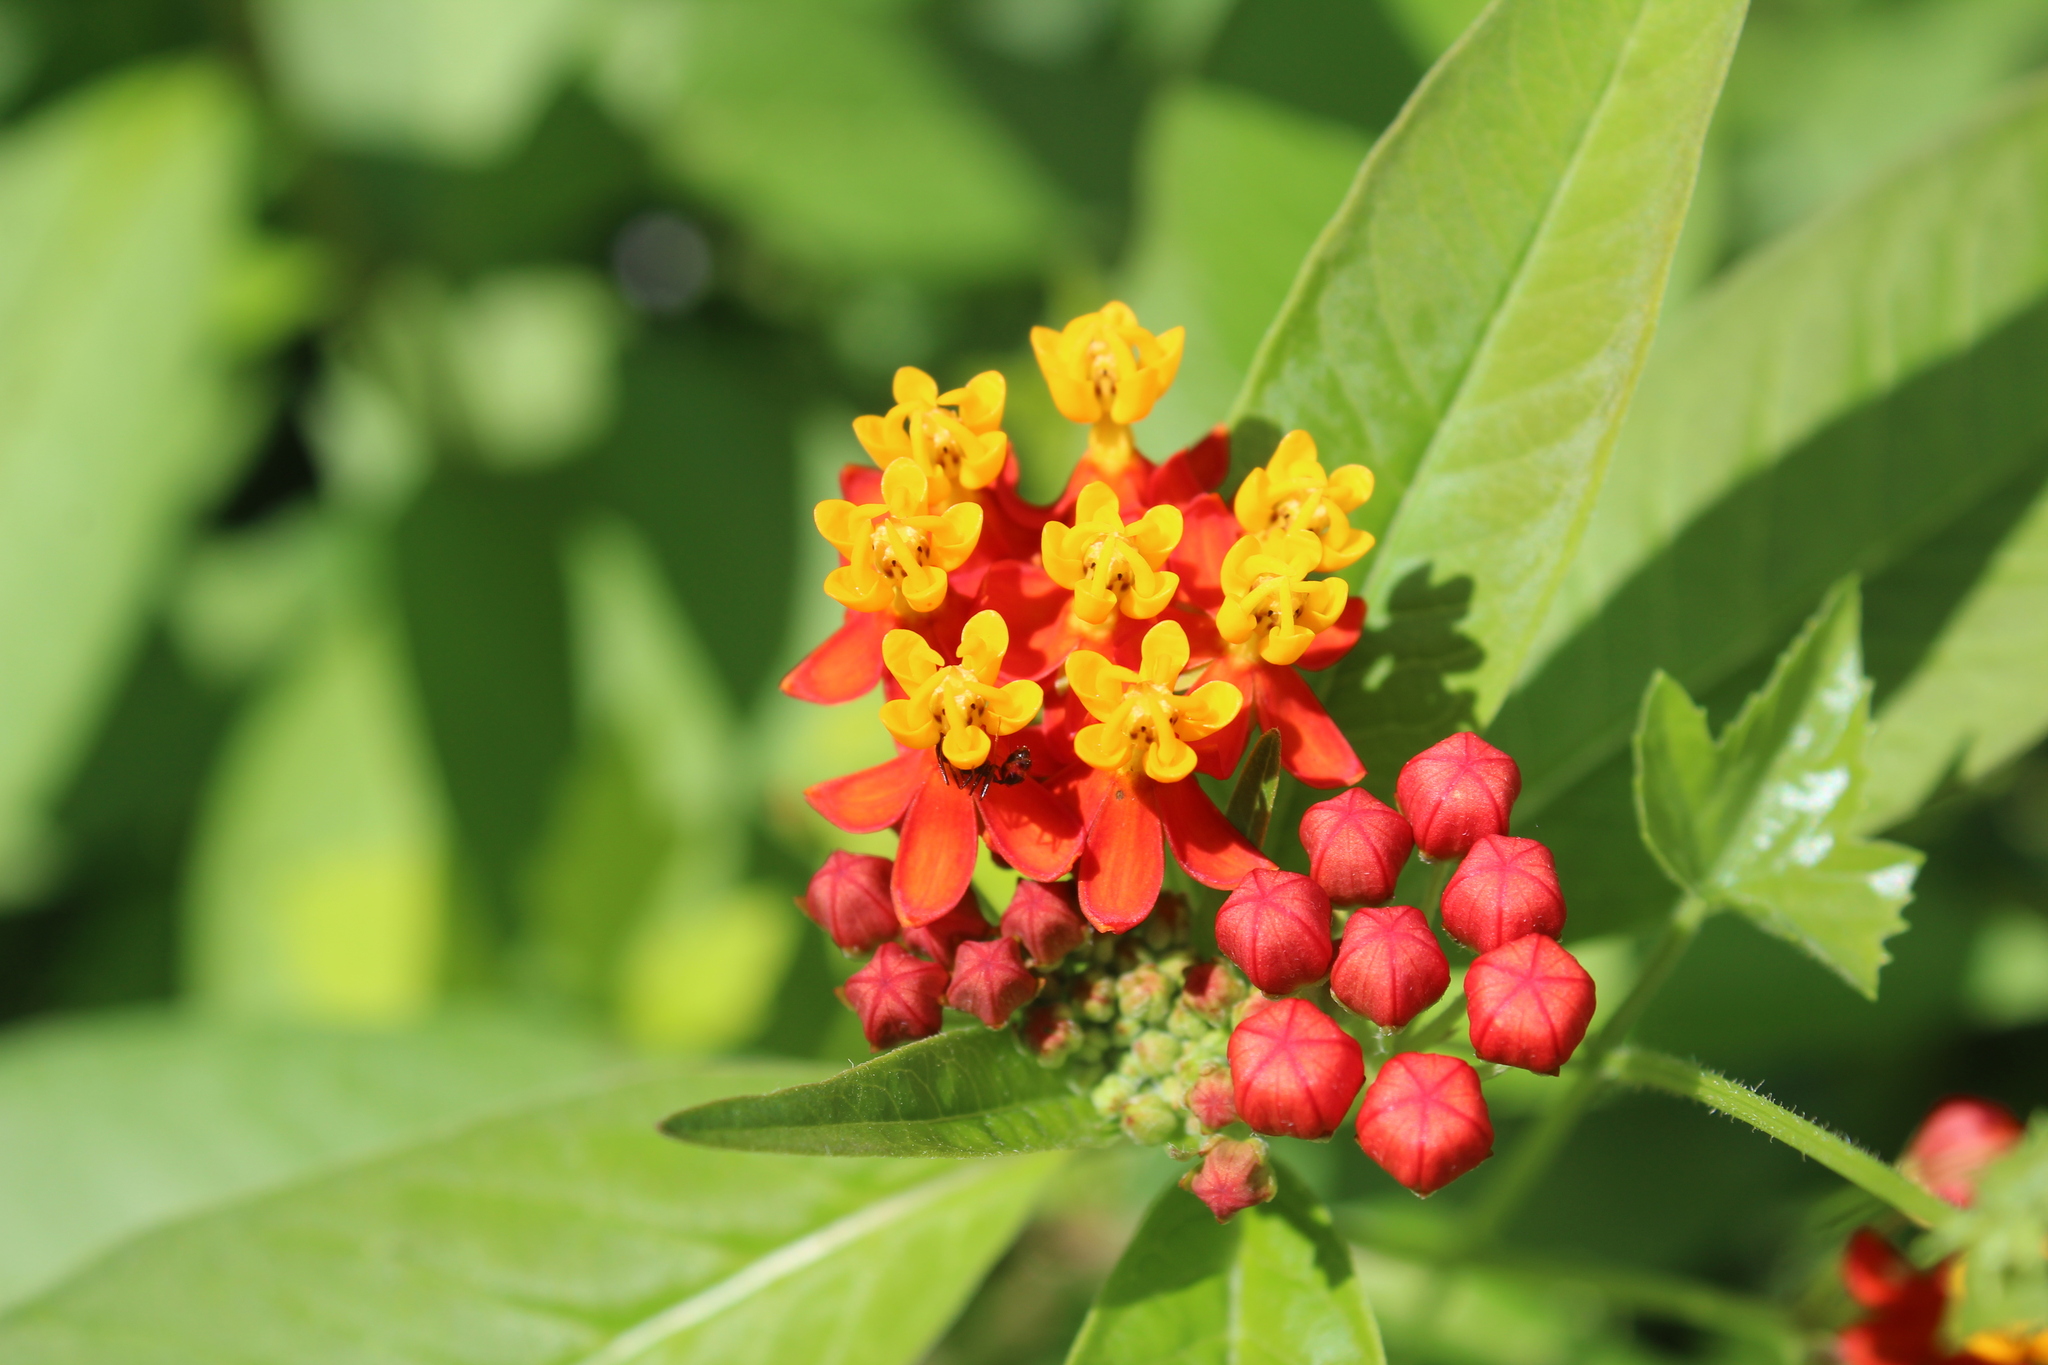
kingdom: Plantae
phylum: Tracheophyta
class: Magnoliopsida
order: Gentianales
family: Apocynaceae
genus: Asclepias
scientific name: Asclepias curassavica
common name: Bloodflower
